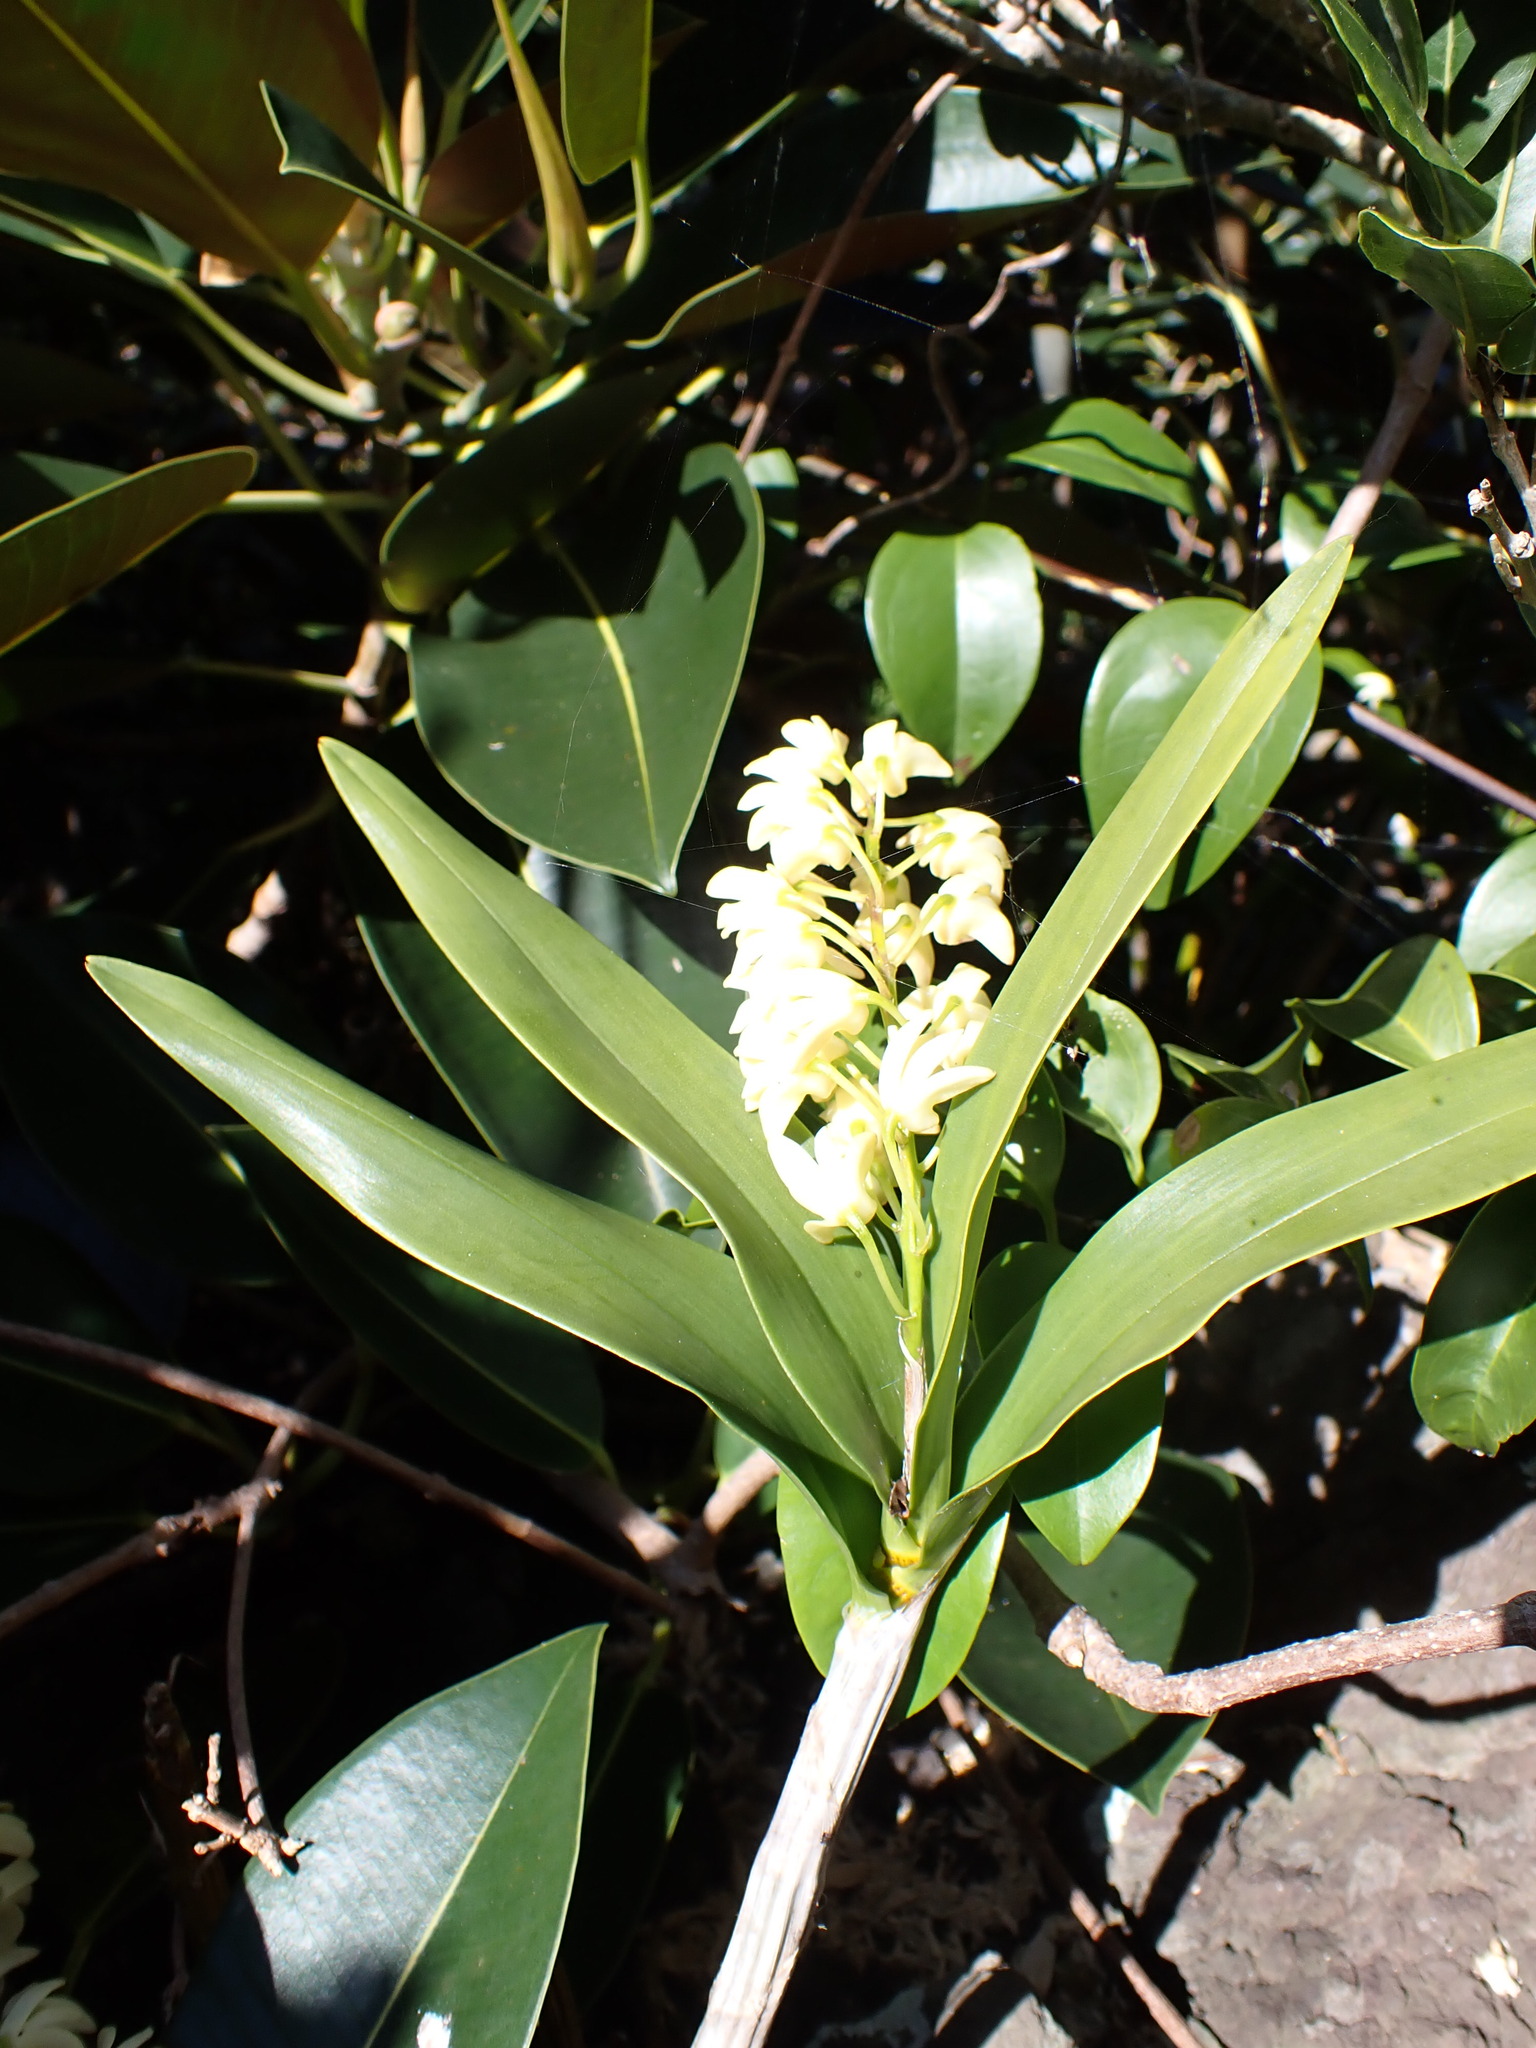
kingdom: Plantae
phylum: Tracheophyta
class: Liliopsida
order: Asparagales
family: Orchidaceae
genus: Dendrobium
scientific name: Dendrobium gracilicaule
